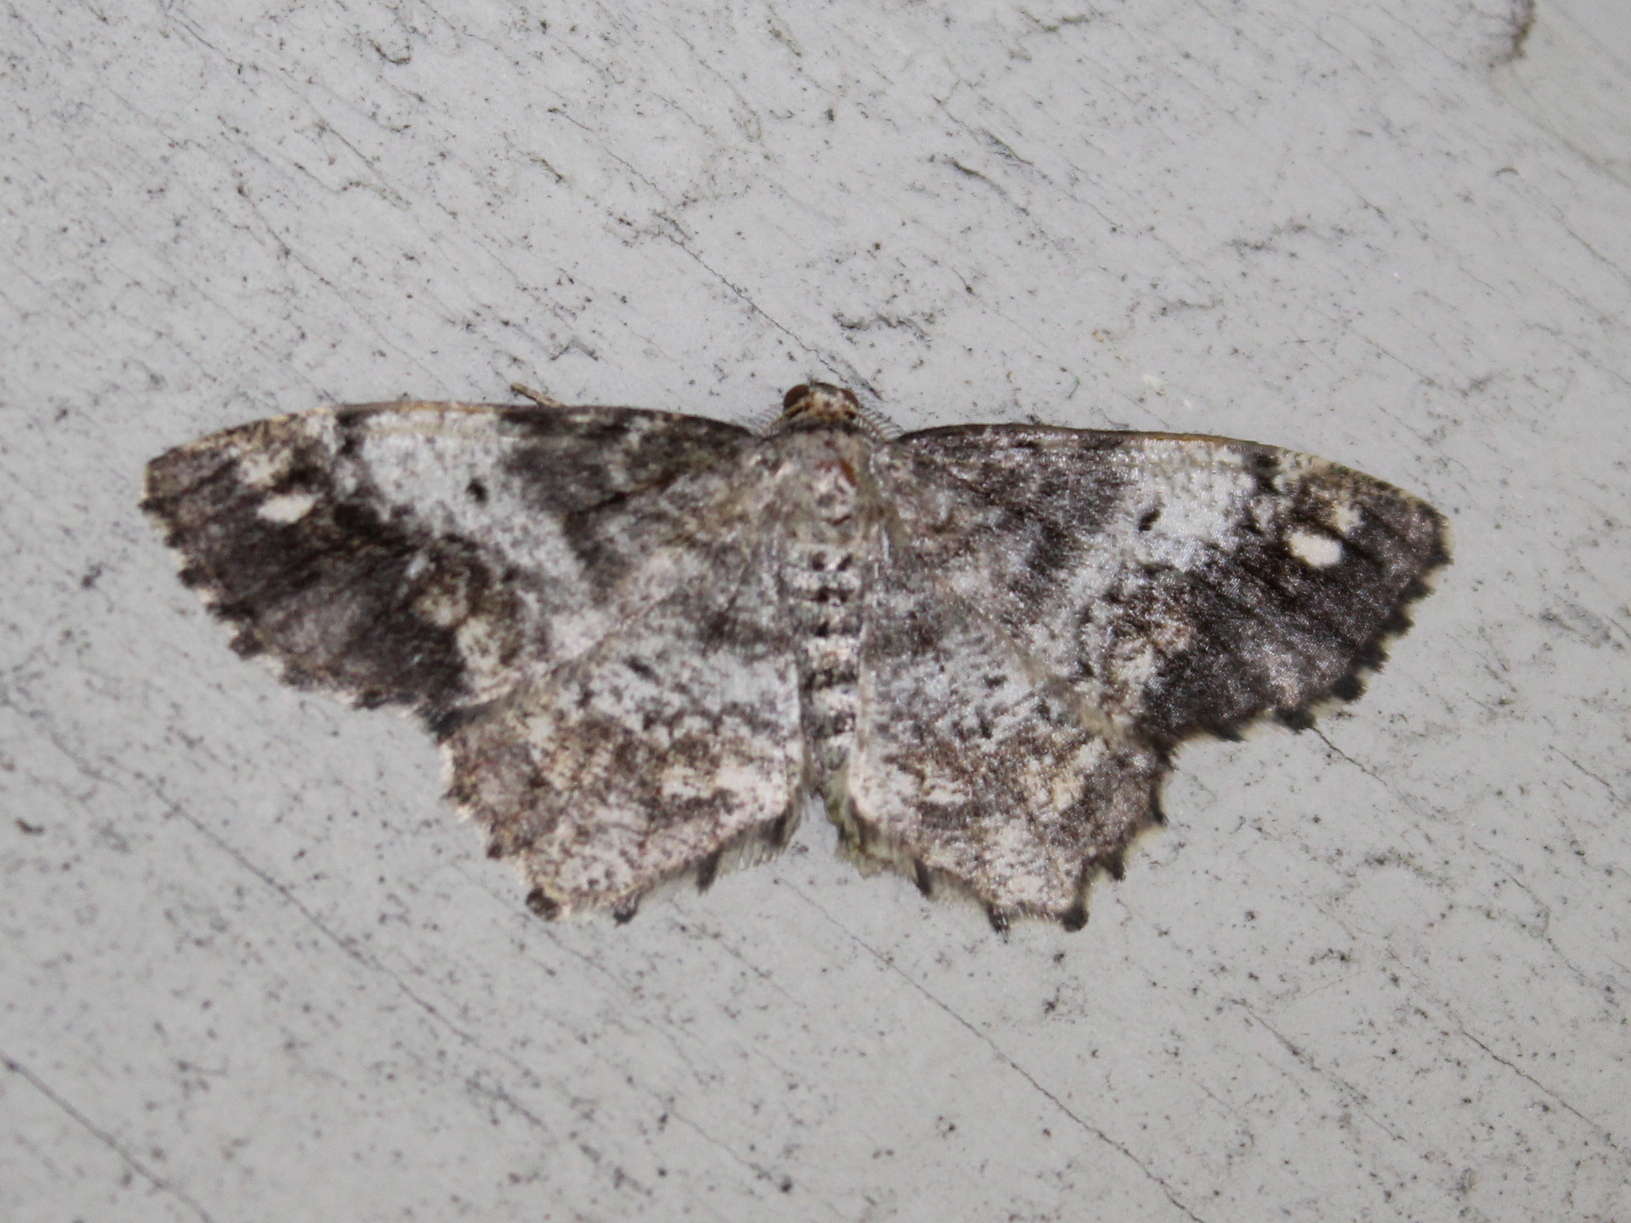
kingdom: Animalia
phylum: Arthropoda
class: Insecta
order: Lepidoptera
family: Geometridae
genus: Hypagyrtis
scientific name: Hypagyrtis unipunctata
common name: One-spotted variant
